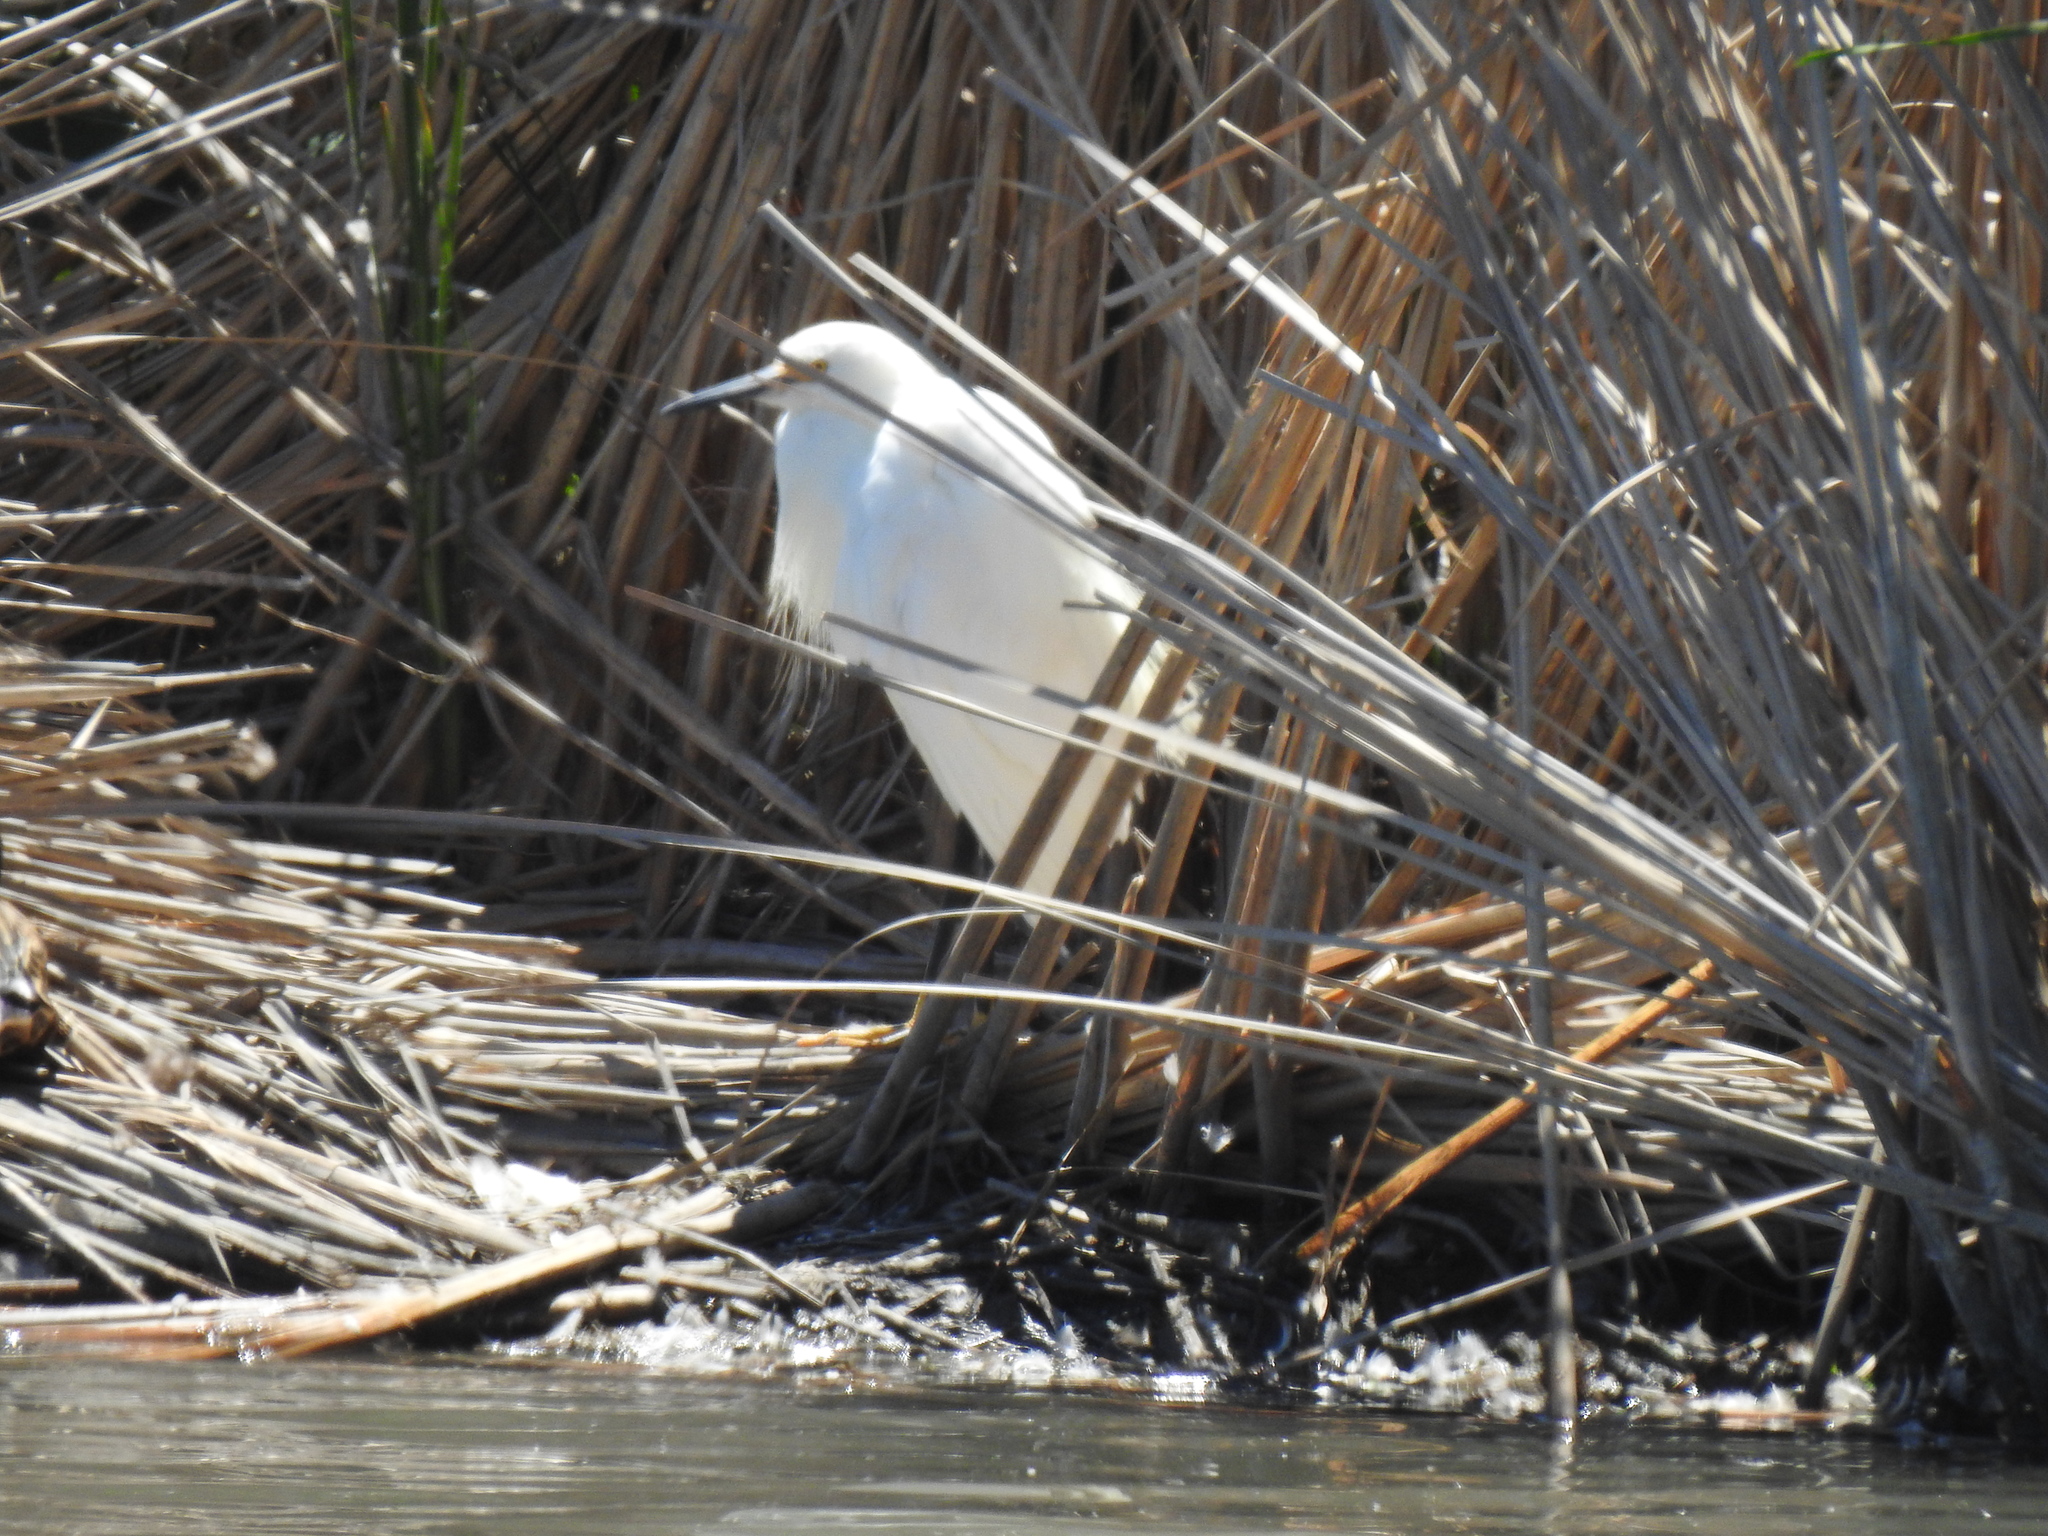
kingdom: Animalia
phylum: Chordata
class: Aves
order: Pelecaniformes
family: Ardeidae
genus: Egretta
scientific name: Egretta thula
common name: Snowy egret
